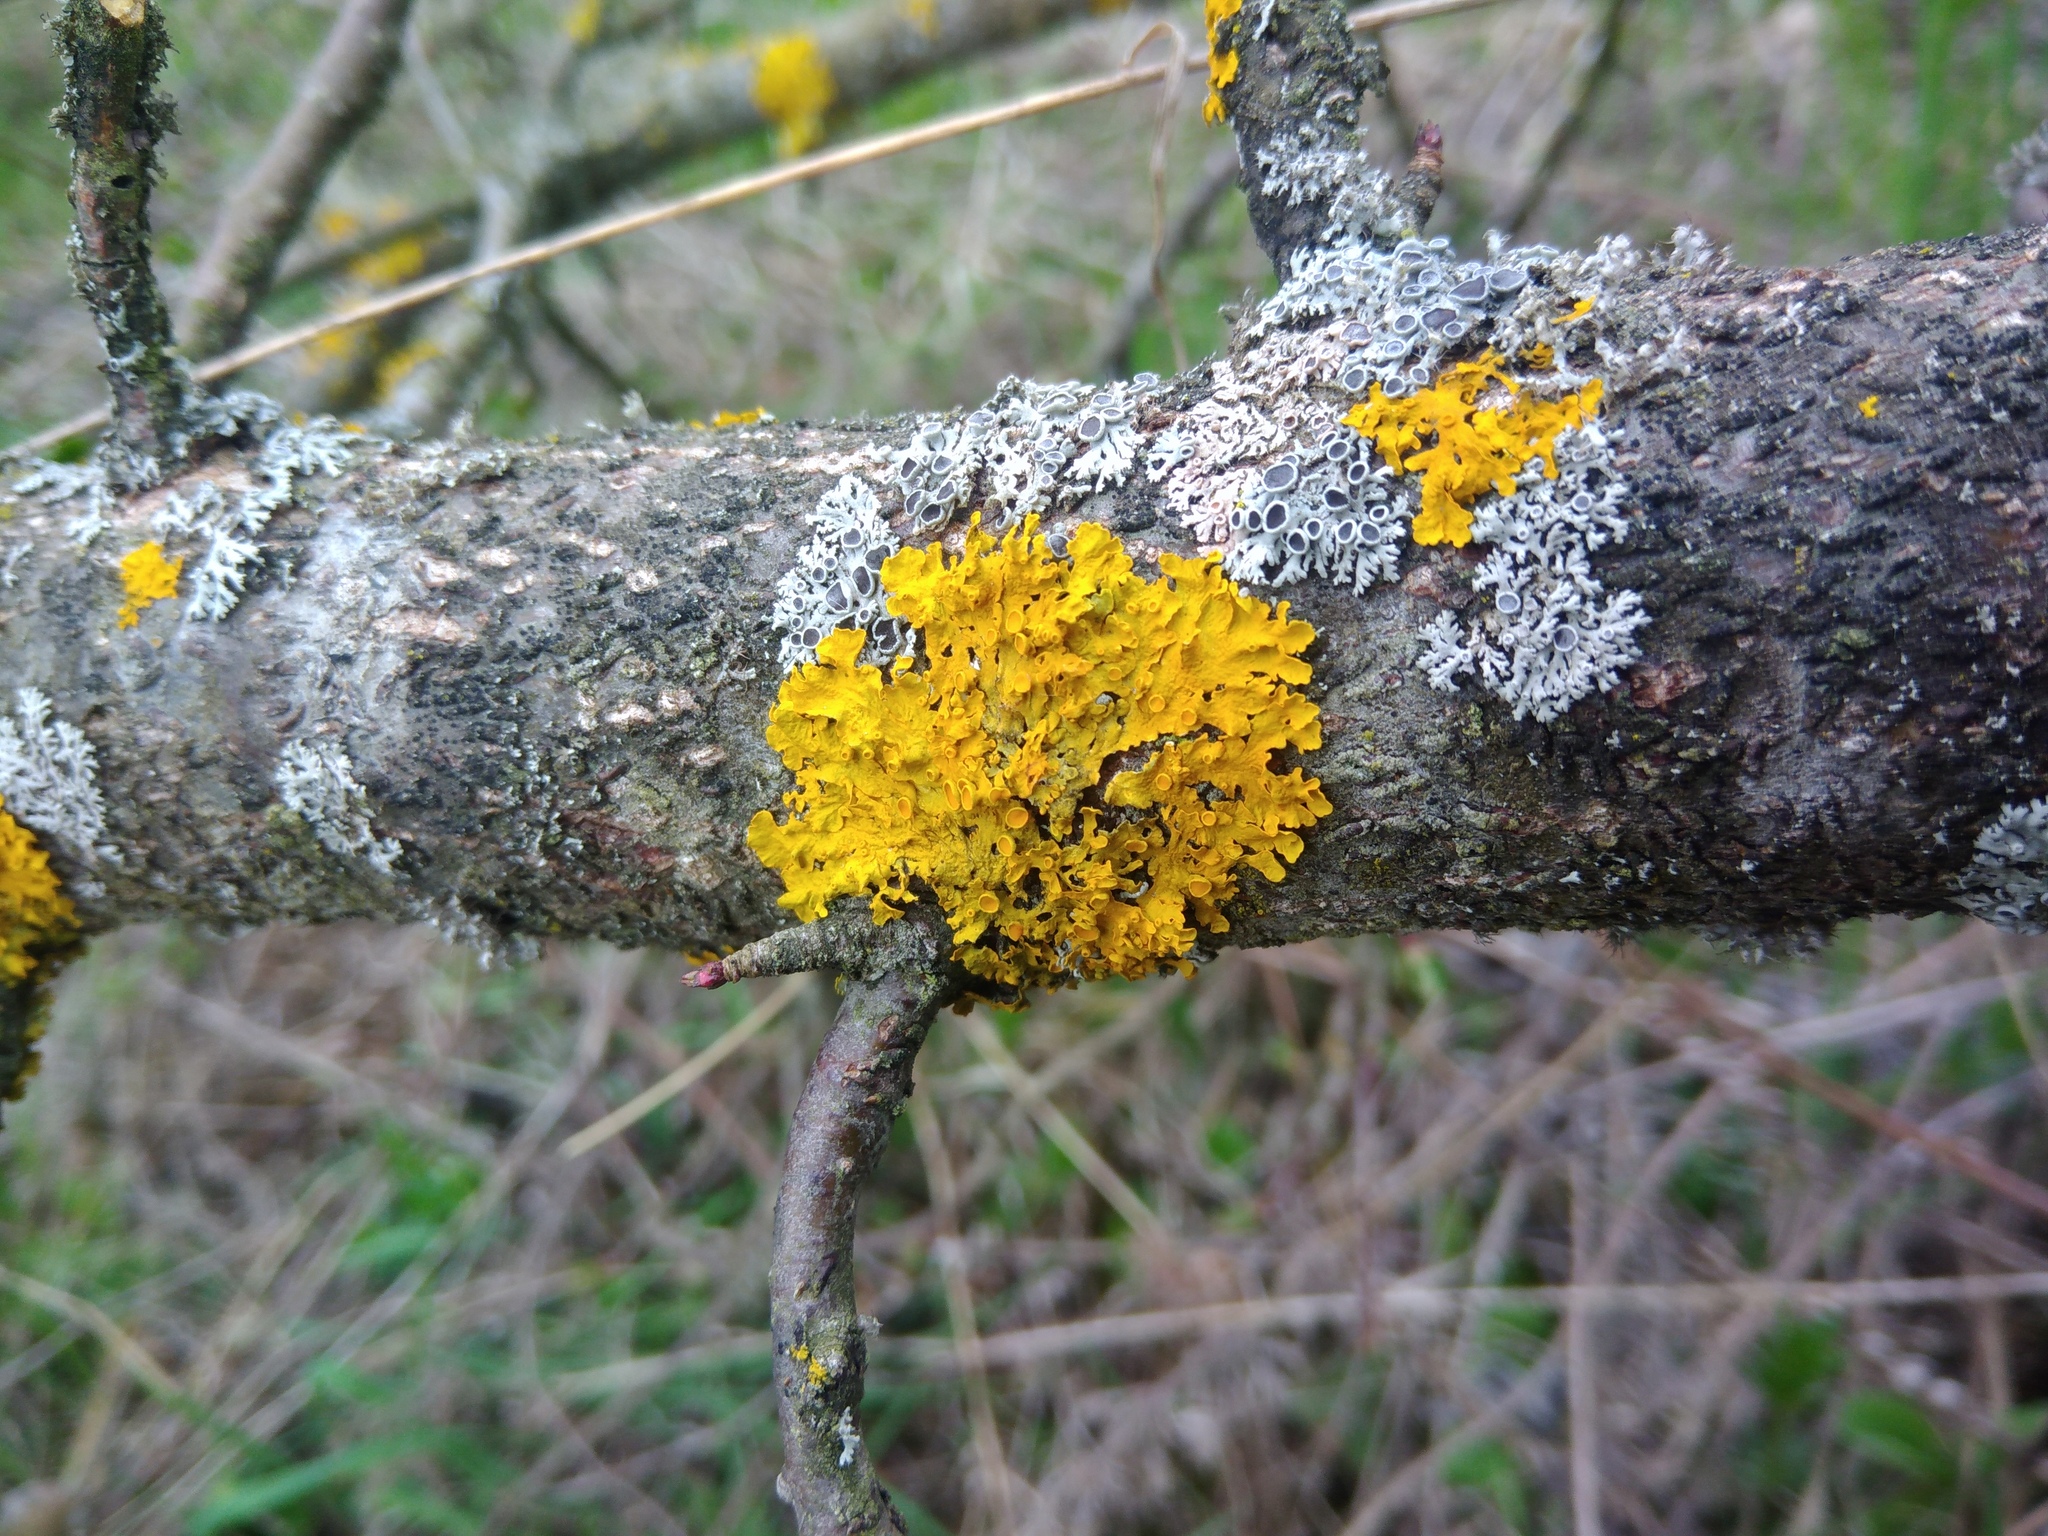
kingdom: Fungi
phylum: Ascomycota
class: Lecanoromycetes
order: Teloschistales
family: Teloschistaceae
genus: Xanthoria
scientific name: Xanthoria parietina
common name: Common orange lichen
